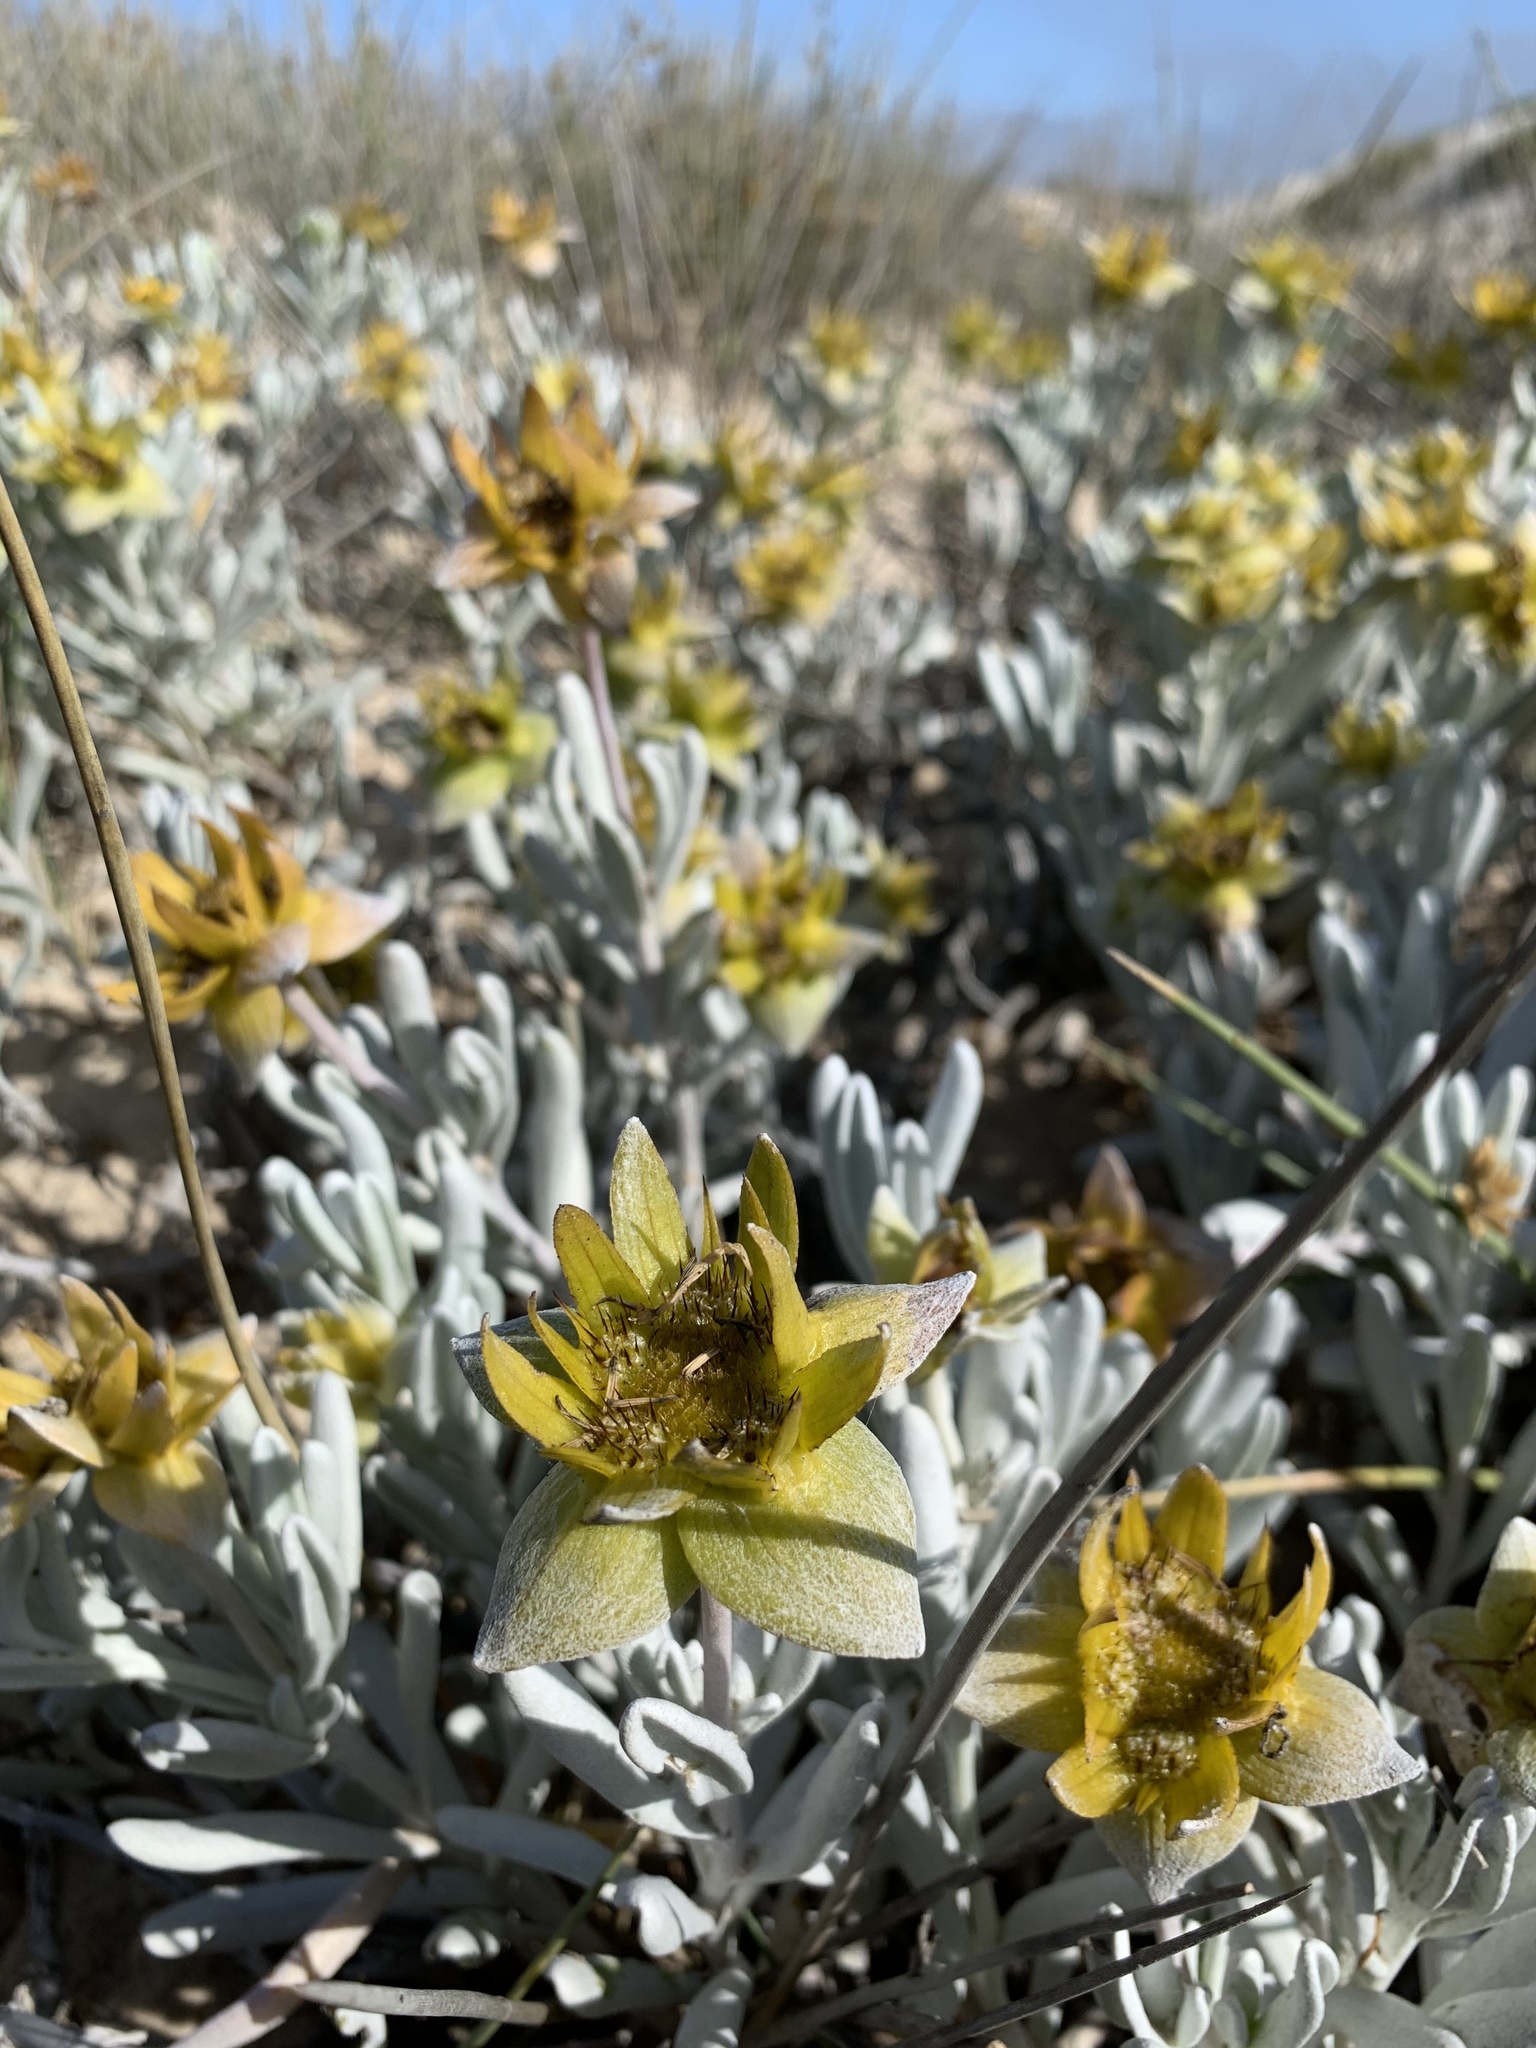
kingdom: Plantae
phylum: Tracheophyta
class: Magnoliopsida
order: Asterales
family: Asteraceae
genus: Didelta
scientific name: Didelta carnosa
